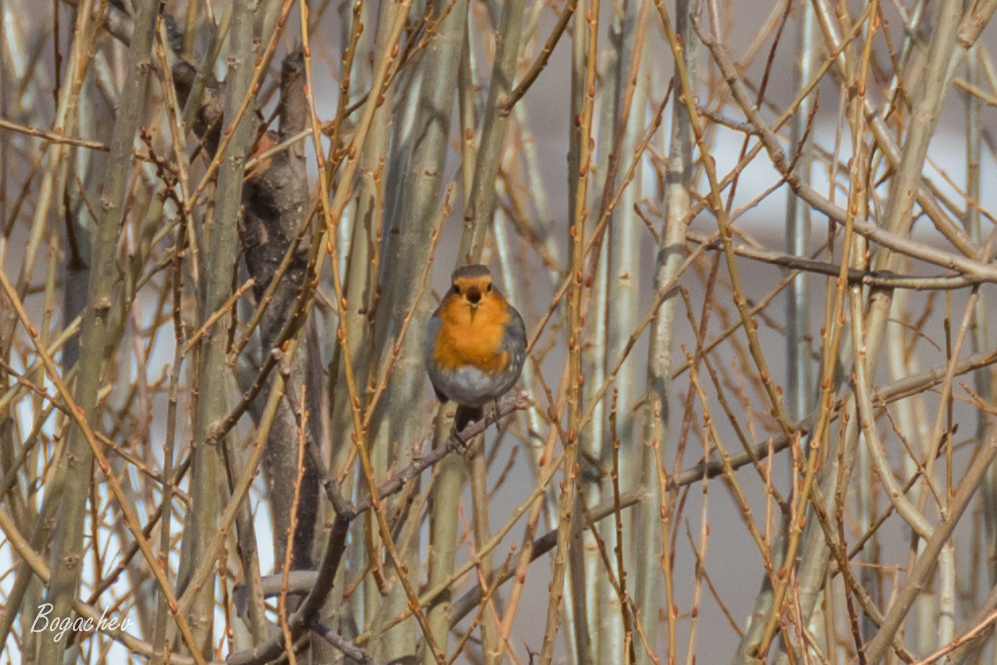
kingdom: Animalia
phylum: Chordata
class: Aves
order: Passeriformes
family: Muscicapidae
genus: Erithacus
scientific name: Erithacus rubecula
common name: European robin
